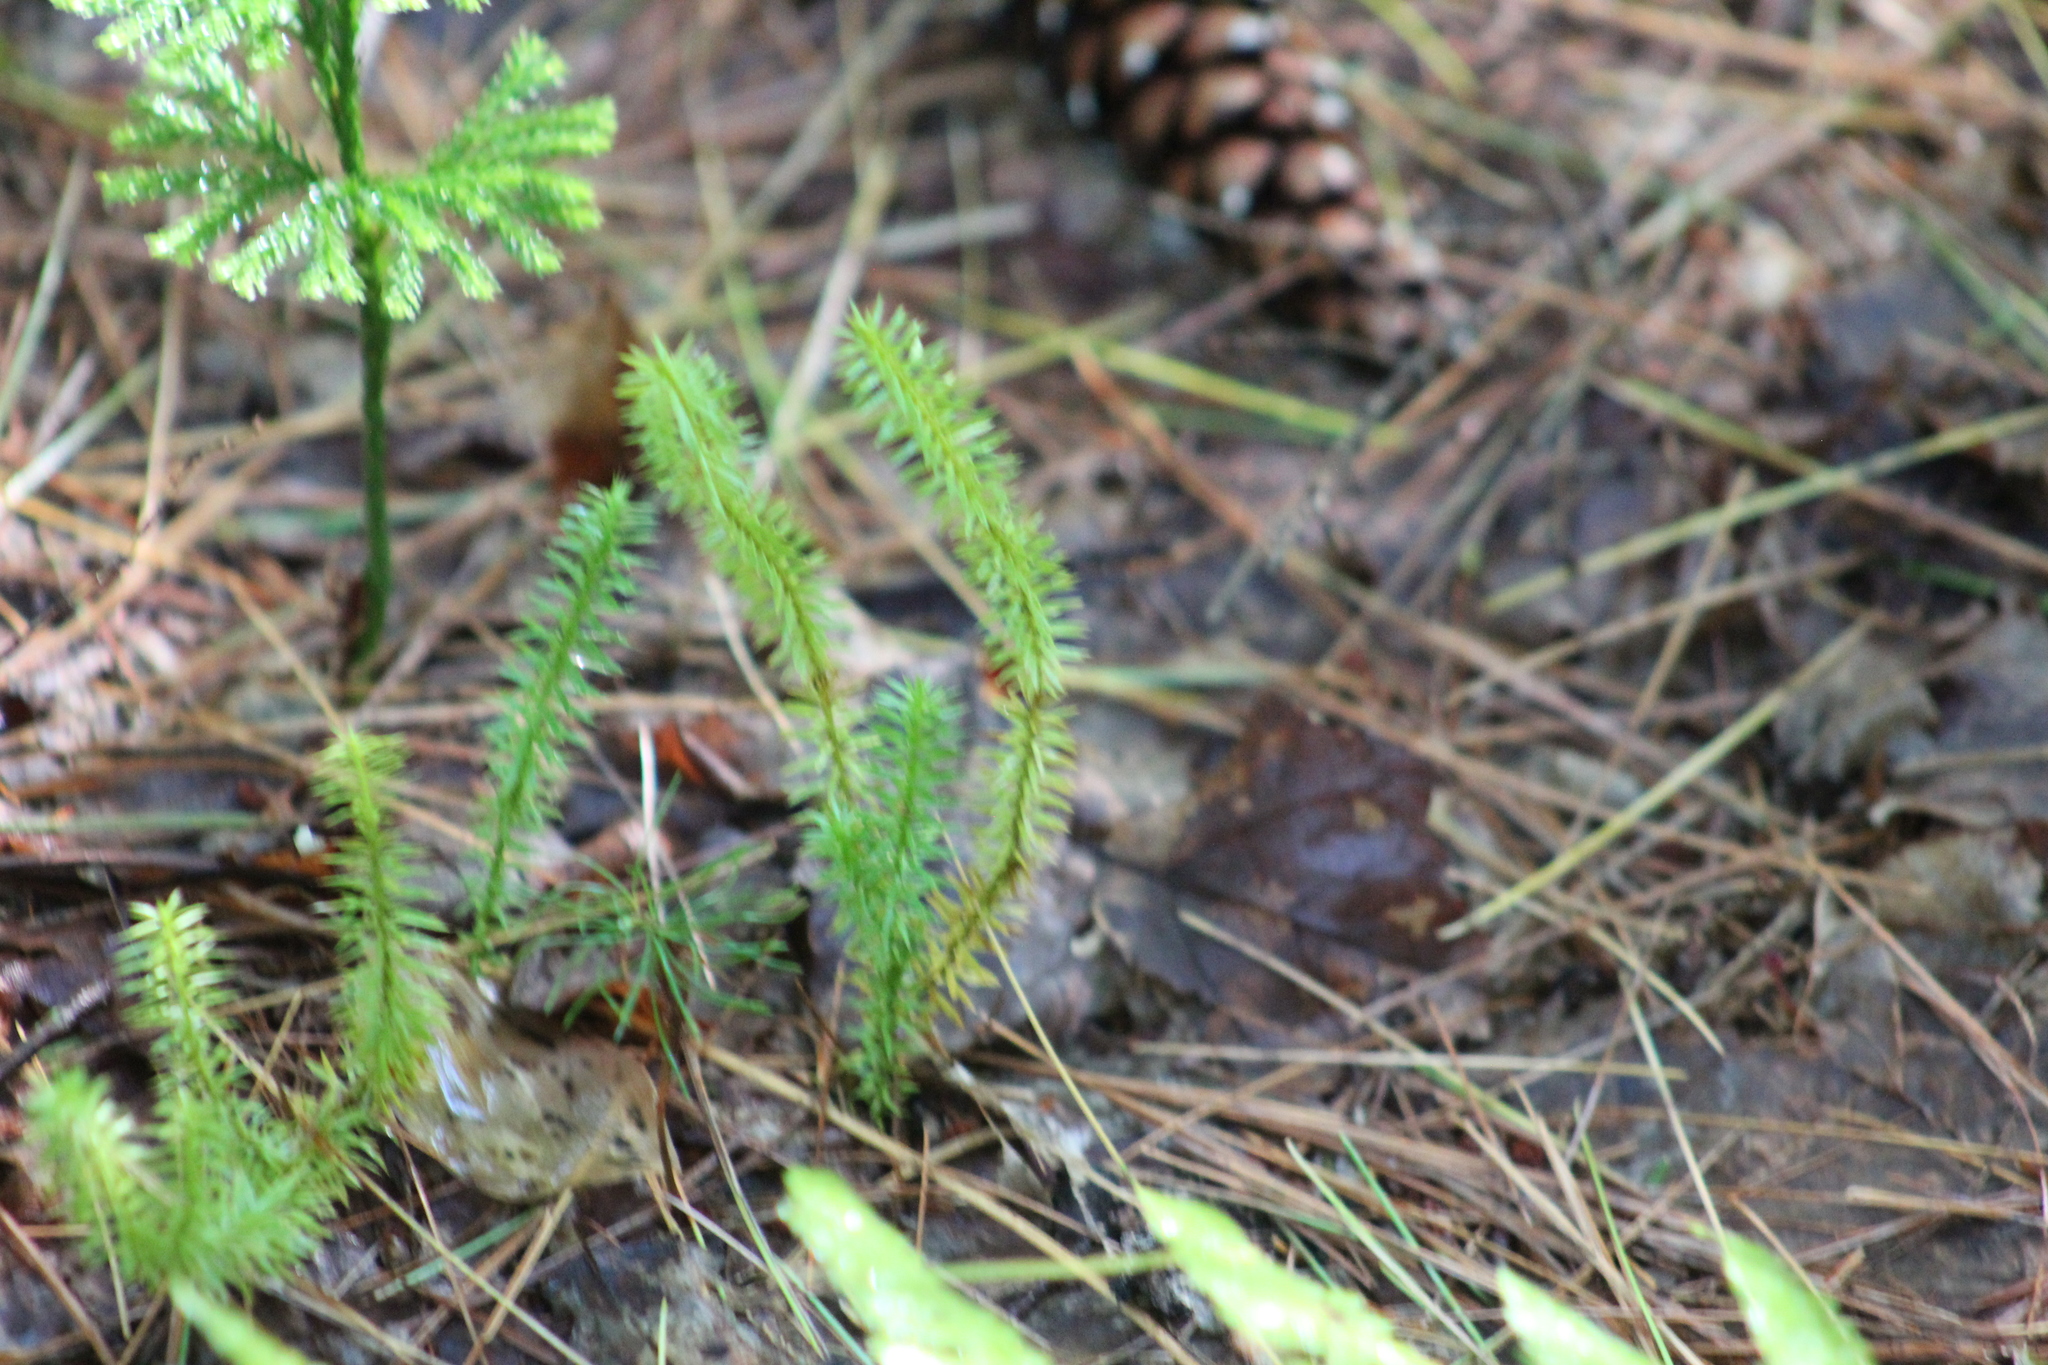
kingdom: Plantae
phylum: Tracheophyta
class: Lycopodiopsida
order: Lycopodiales
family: Lycopodiaceae
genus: Spinulum
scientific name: Spinulum annotinum
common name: Interrupted club-moss
